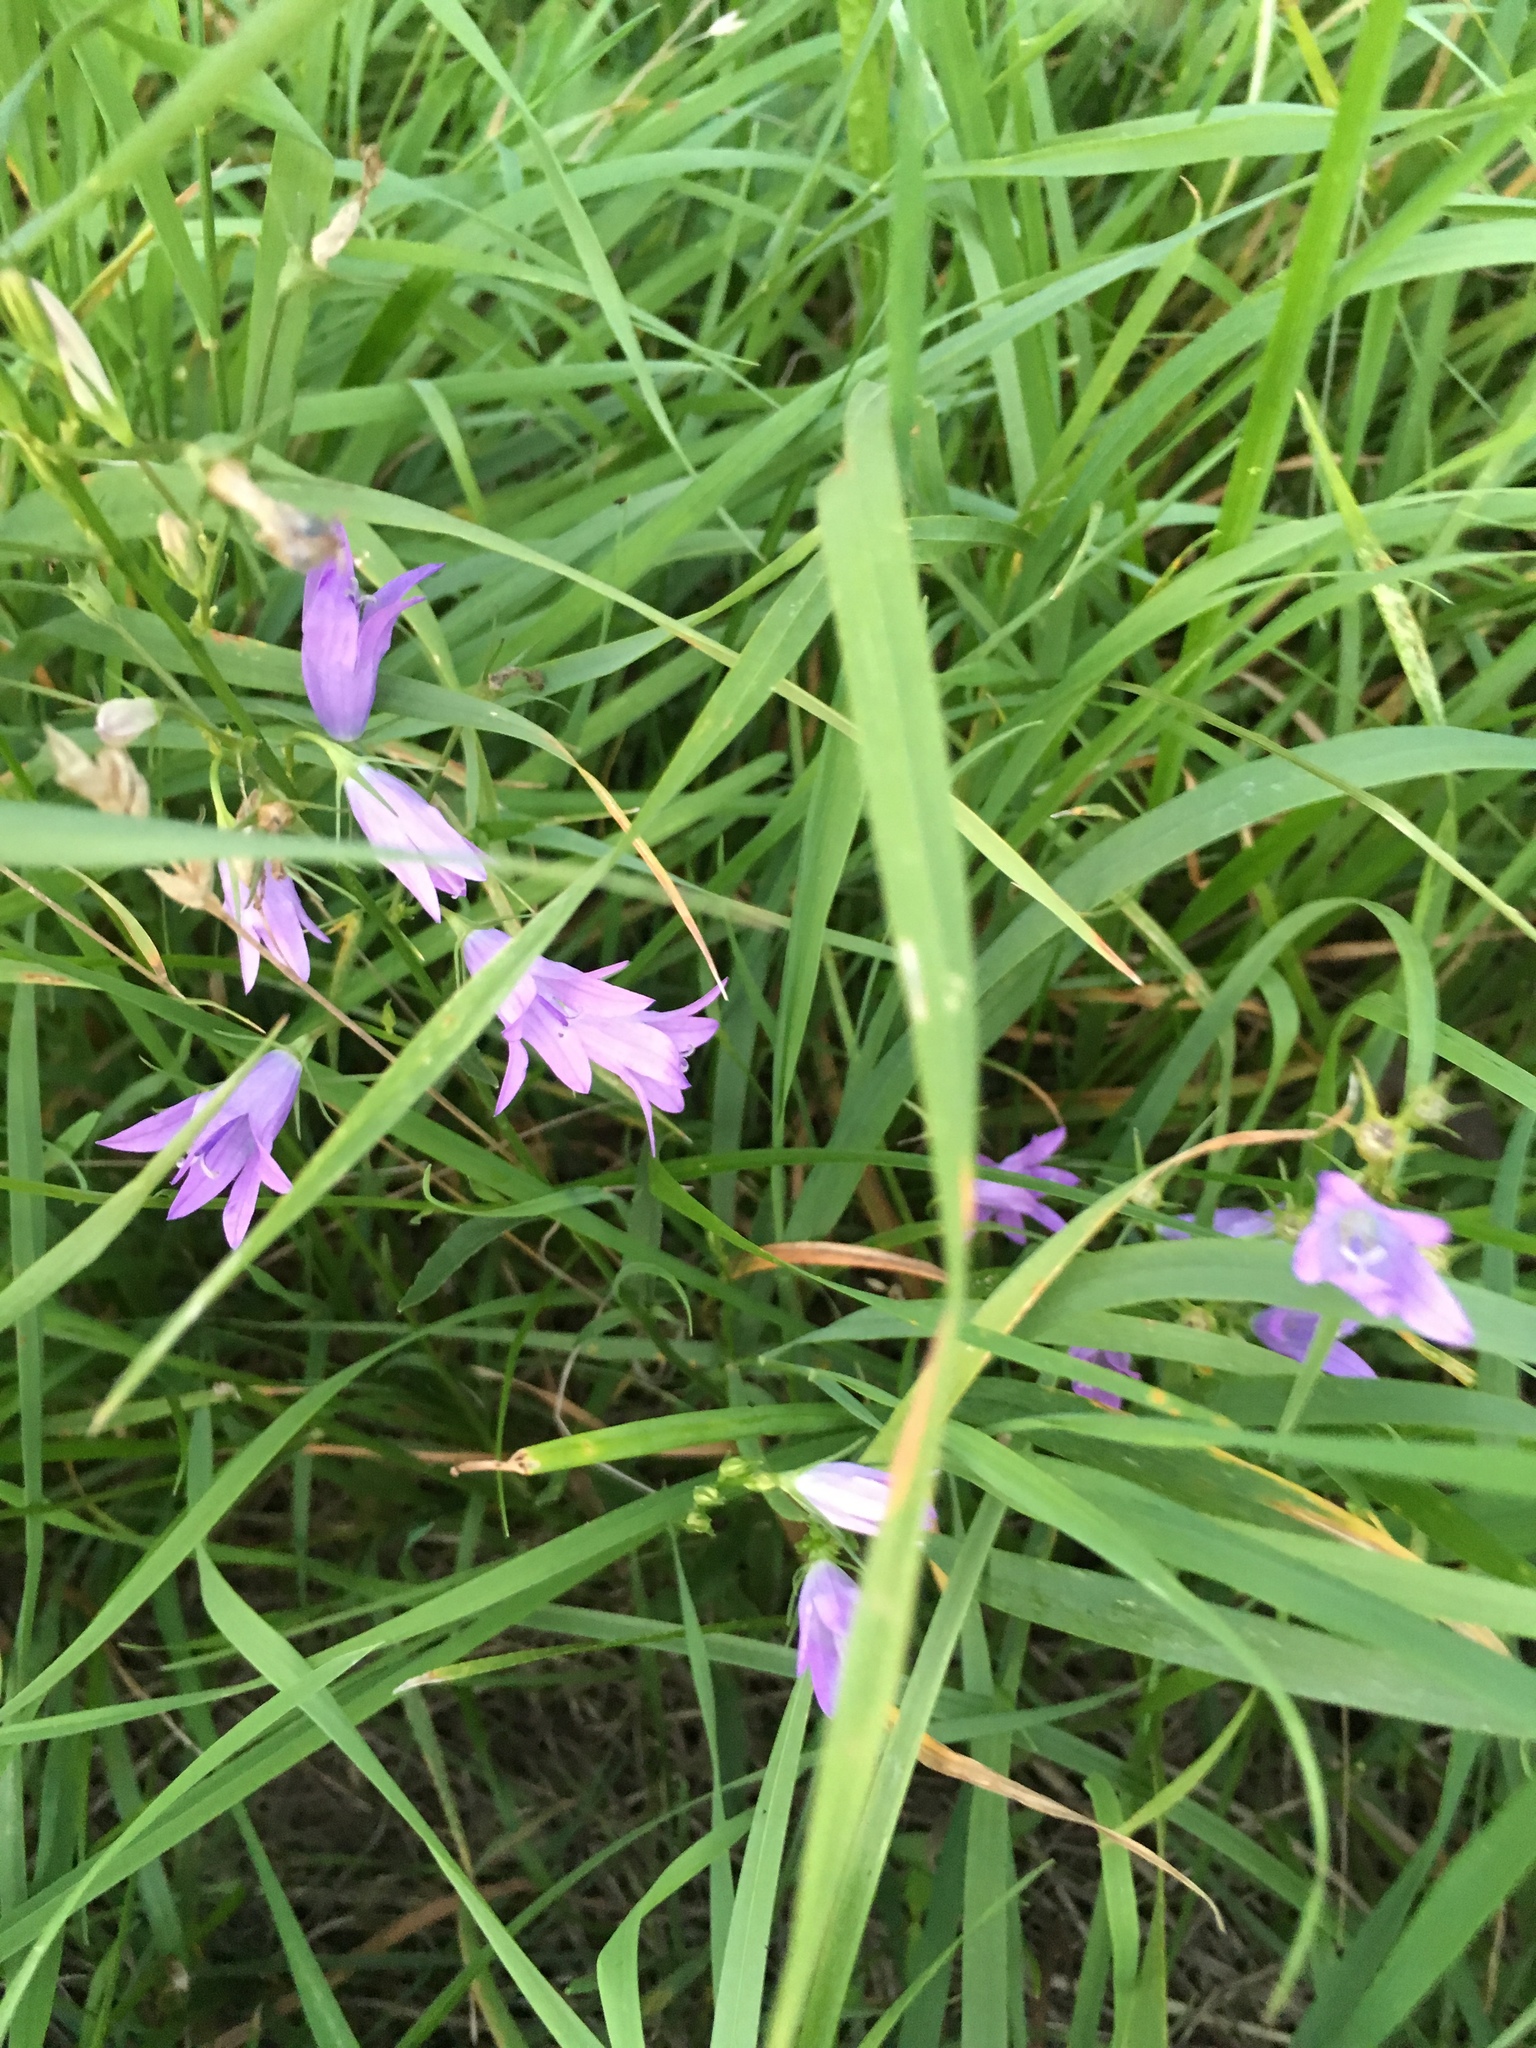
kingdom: Plantae
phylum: Tracheophyta
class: Magnoliopsida
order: Asterales
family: Campanulaceae
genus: Campanula
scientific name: Campanula rapunculus
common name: Rampion bellflower
